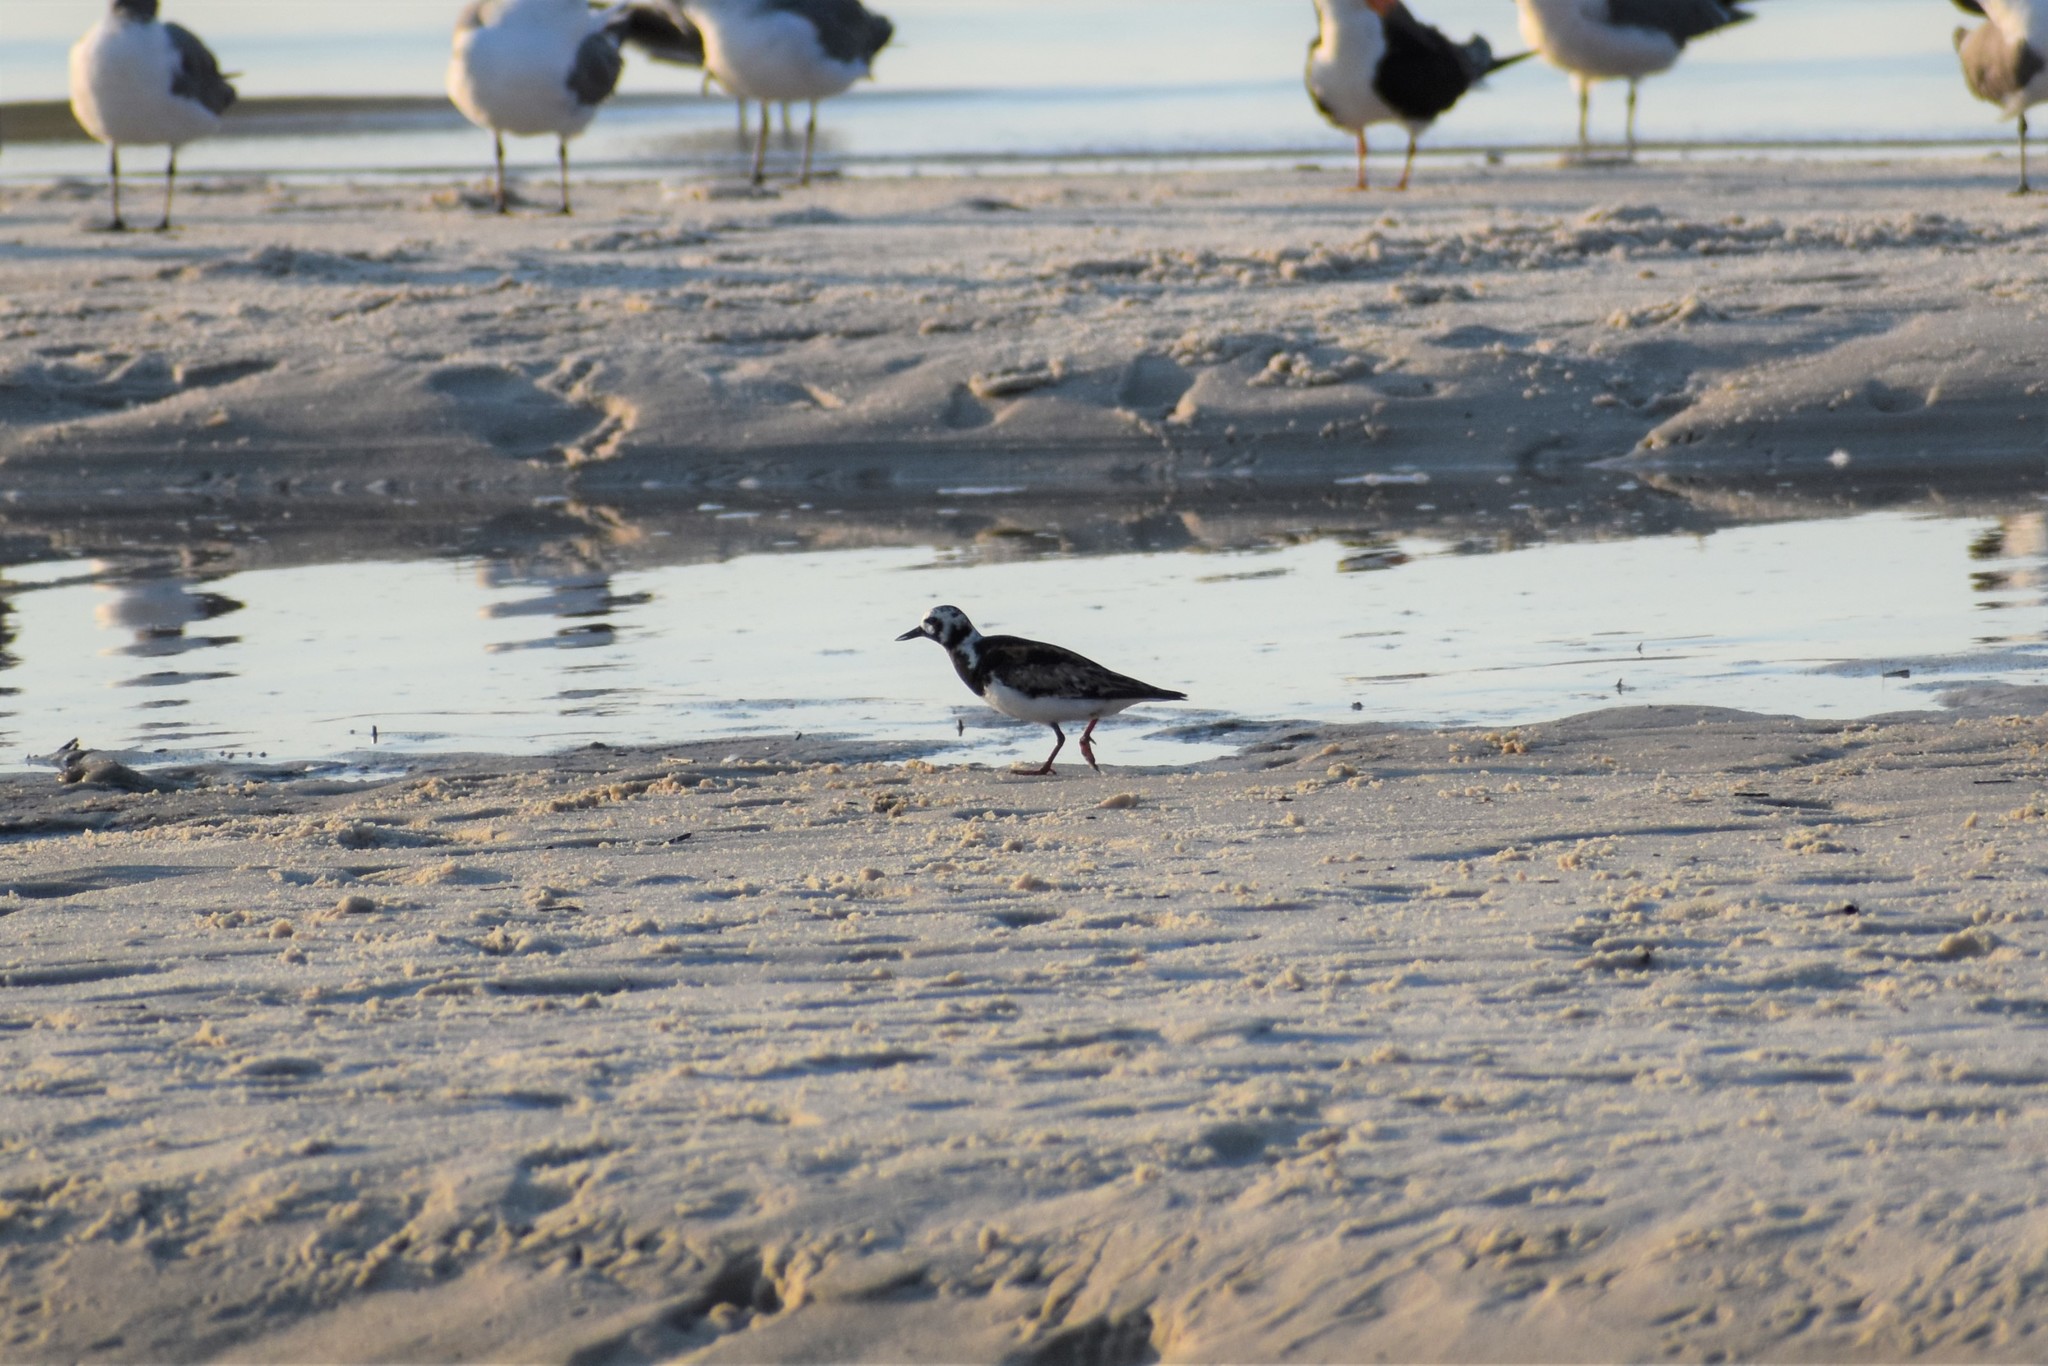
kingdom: Animalia
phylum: Chordata
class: Aves
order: Charadriiformes
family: Scolopacidae
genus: Arenaria
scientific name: Arenaria interpres
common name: Ruddy turnstone
